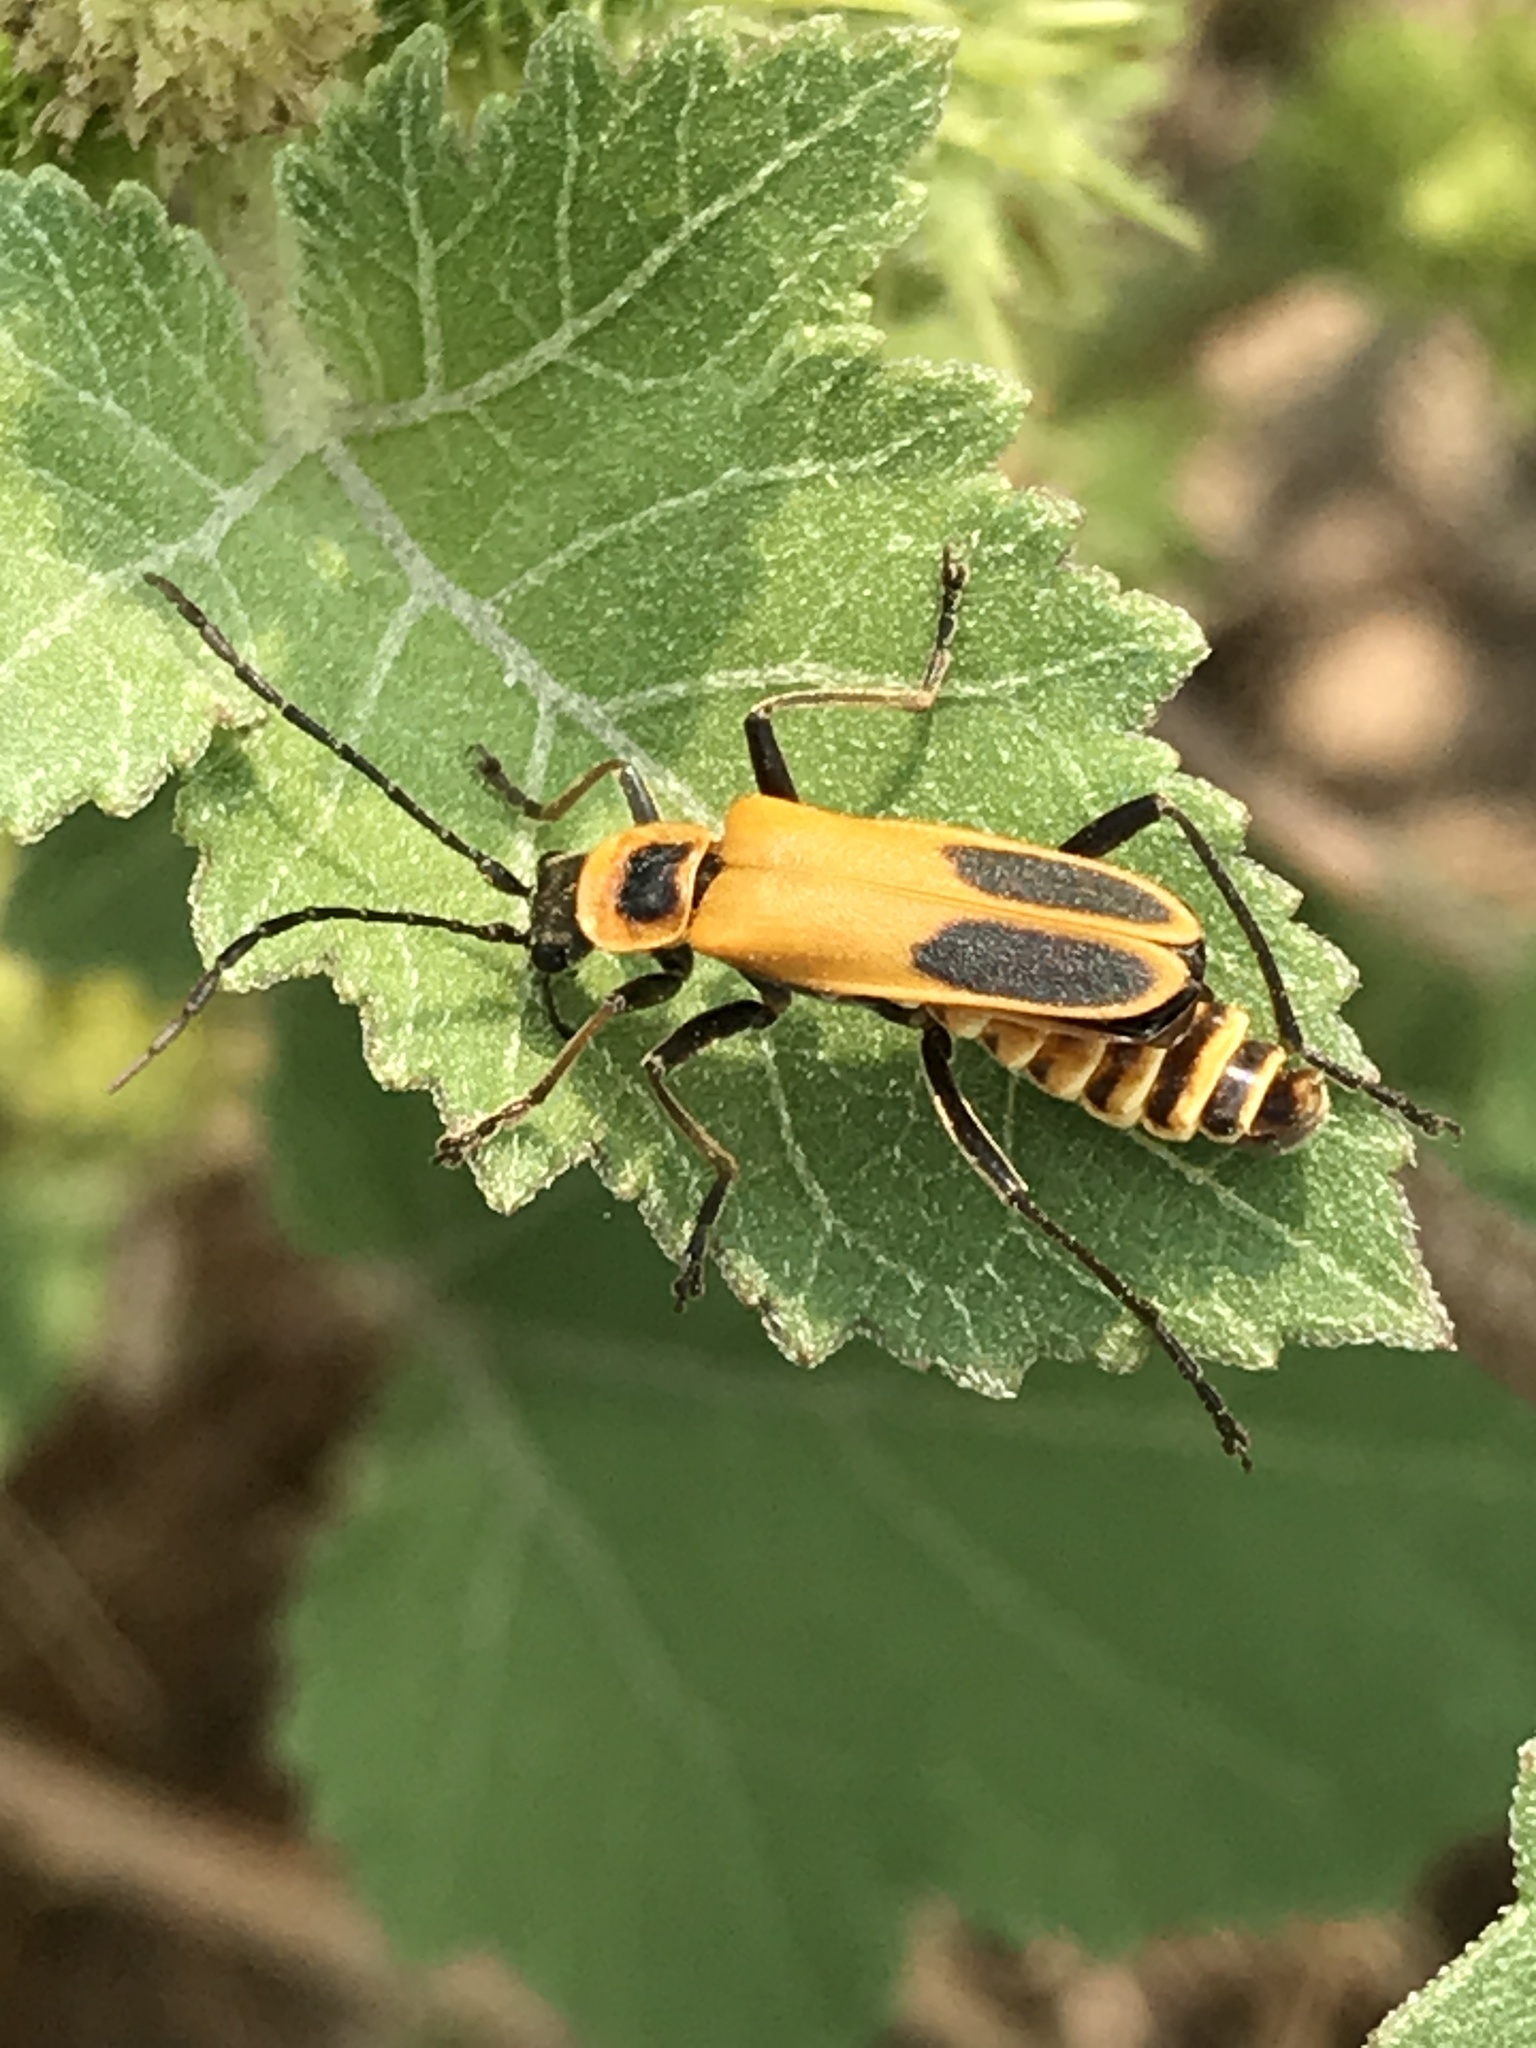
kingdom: Animalia
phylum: Arthropoda
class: Insecta
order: Coleoptera
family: Cantharidae
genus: Chauliognathus
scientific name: Chauliognathus pensylvanicus
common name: Goldenrod soldier beetle
